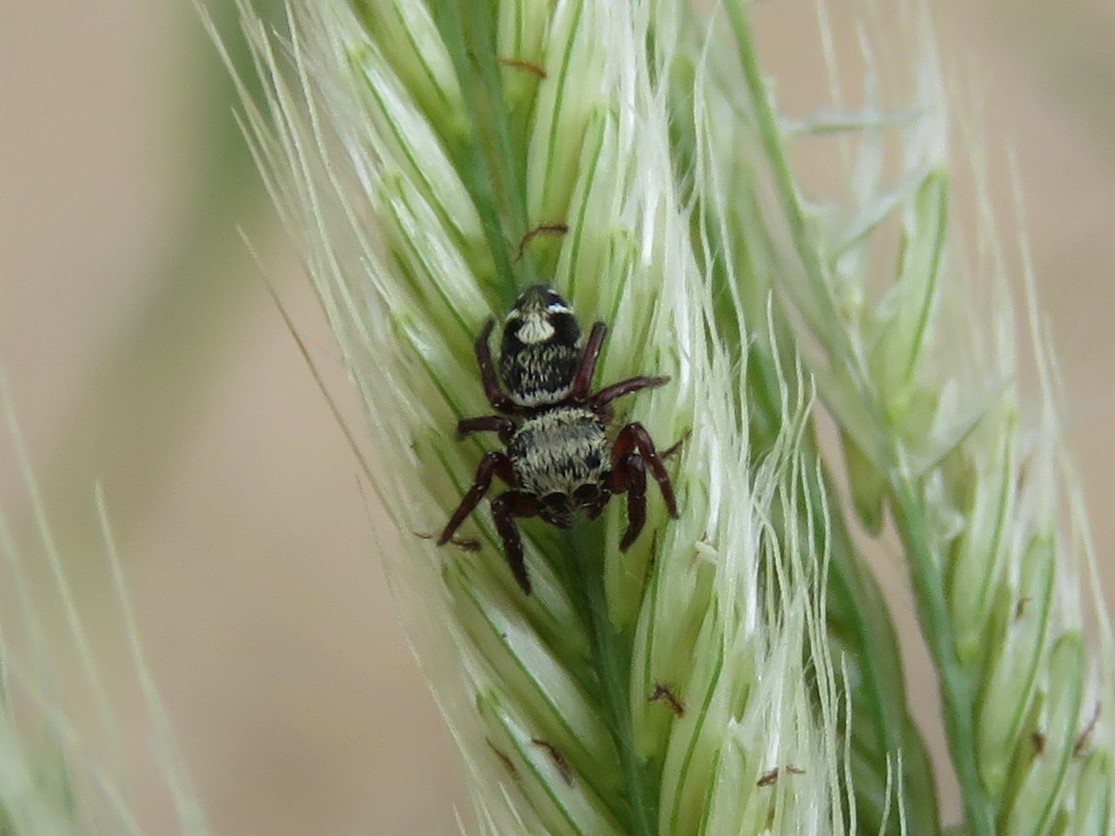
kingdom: Animalia
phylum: Arthropoda
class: Arachnida
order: Araneae
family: Salticidae
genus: Phidippus
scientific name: Phidippus audax
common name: Bold jumper
